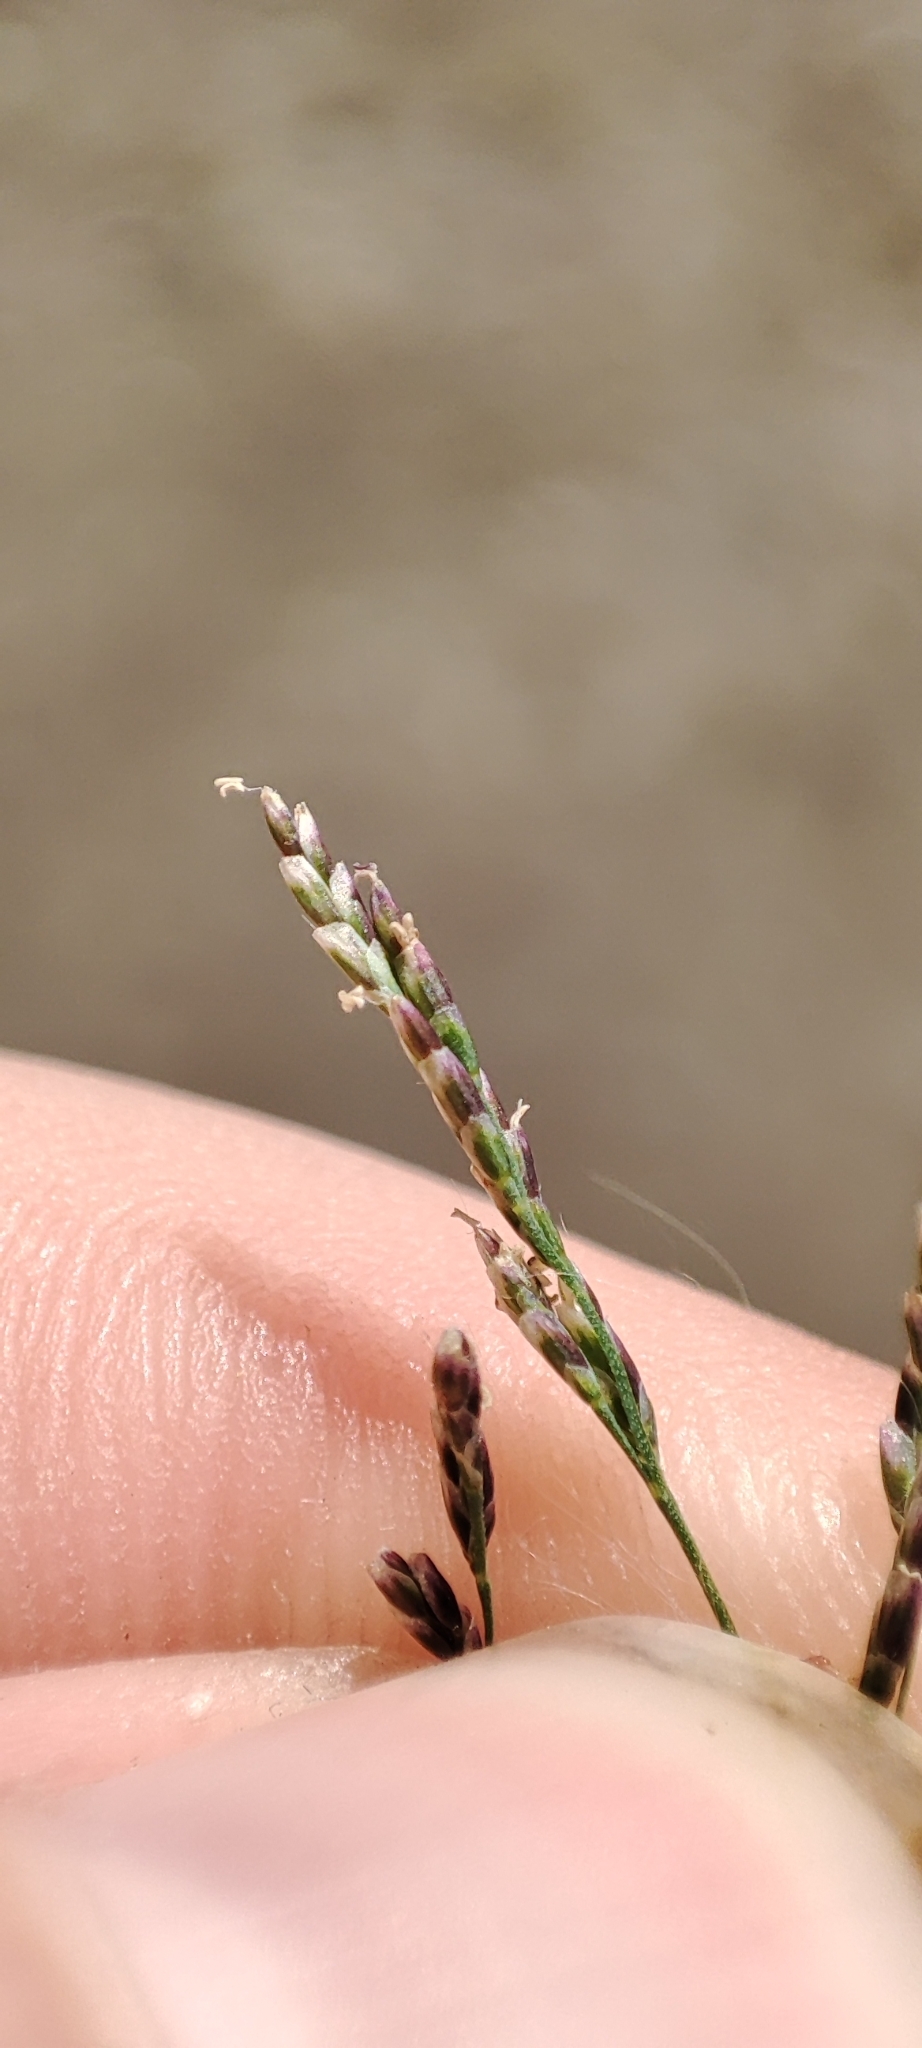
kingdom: Plantae
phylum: Tracheophyta
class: Liliopsida
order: Poales
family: Poaceae
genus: Puccinellia
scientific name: Puccinellia distans
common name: Weeping alkaligrass
